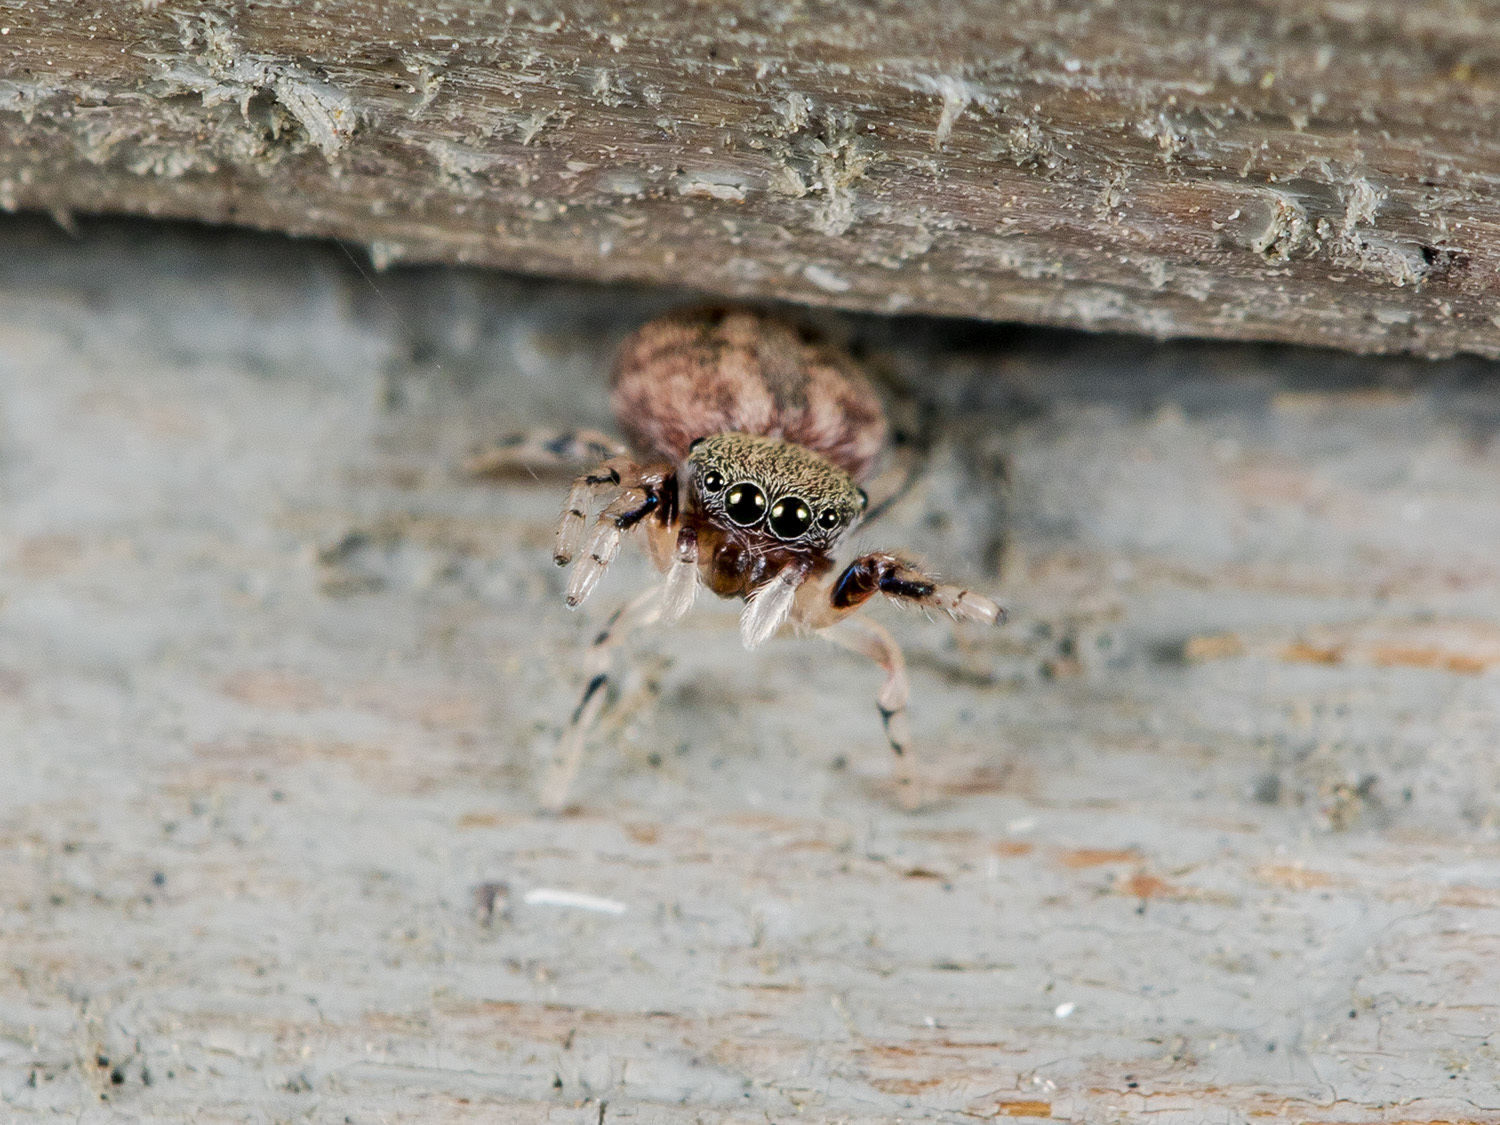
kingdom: Animalia
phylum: Arthropoda
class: Arachnida
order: Araneae
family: Salticidae
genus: Ballus
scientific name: Ballus chalybeius
